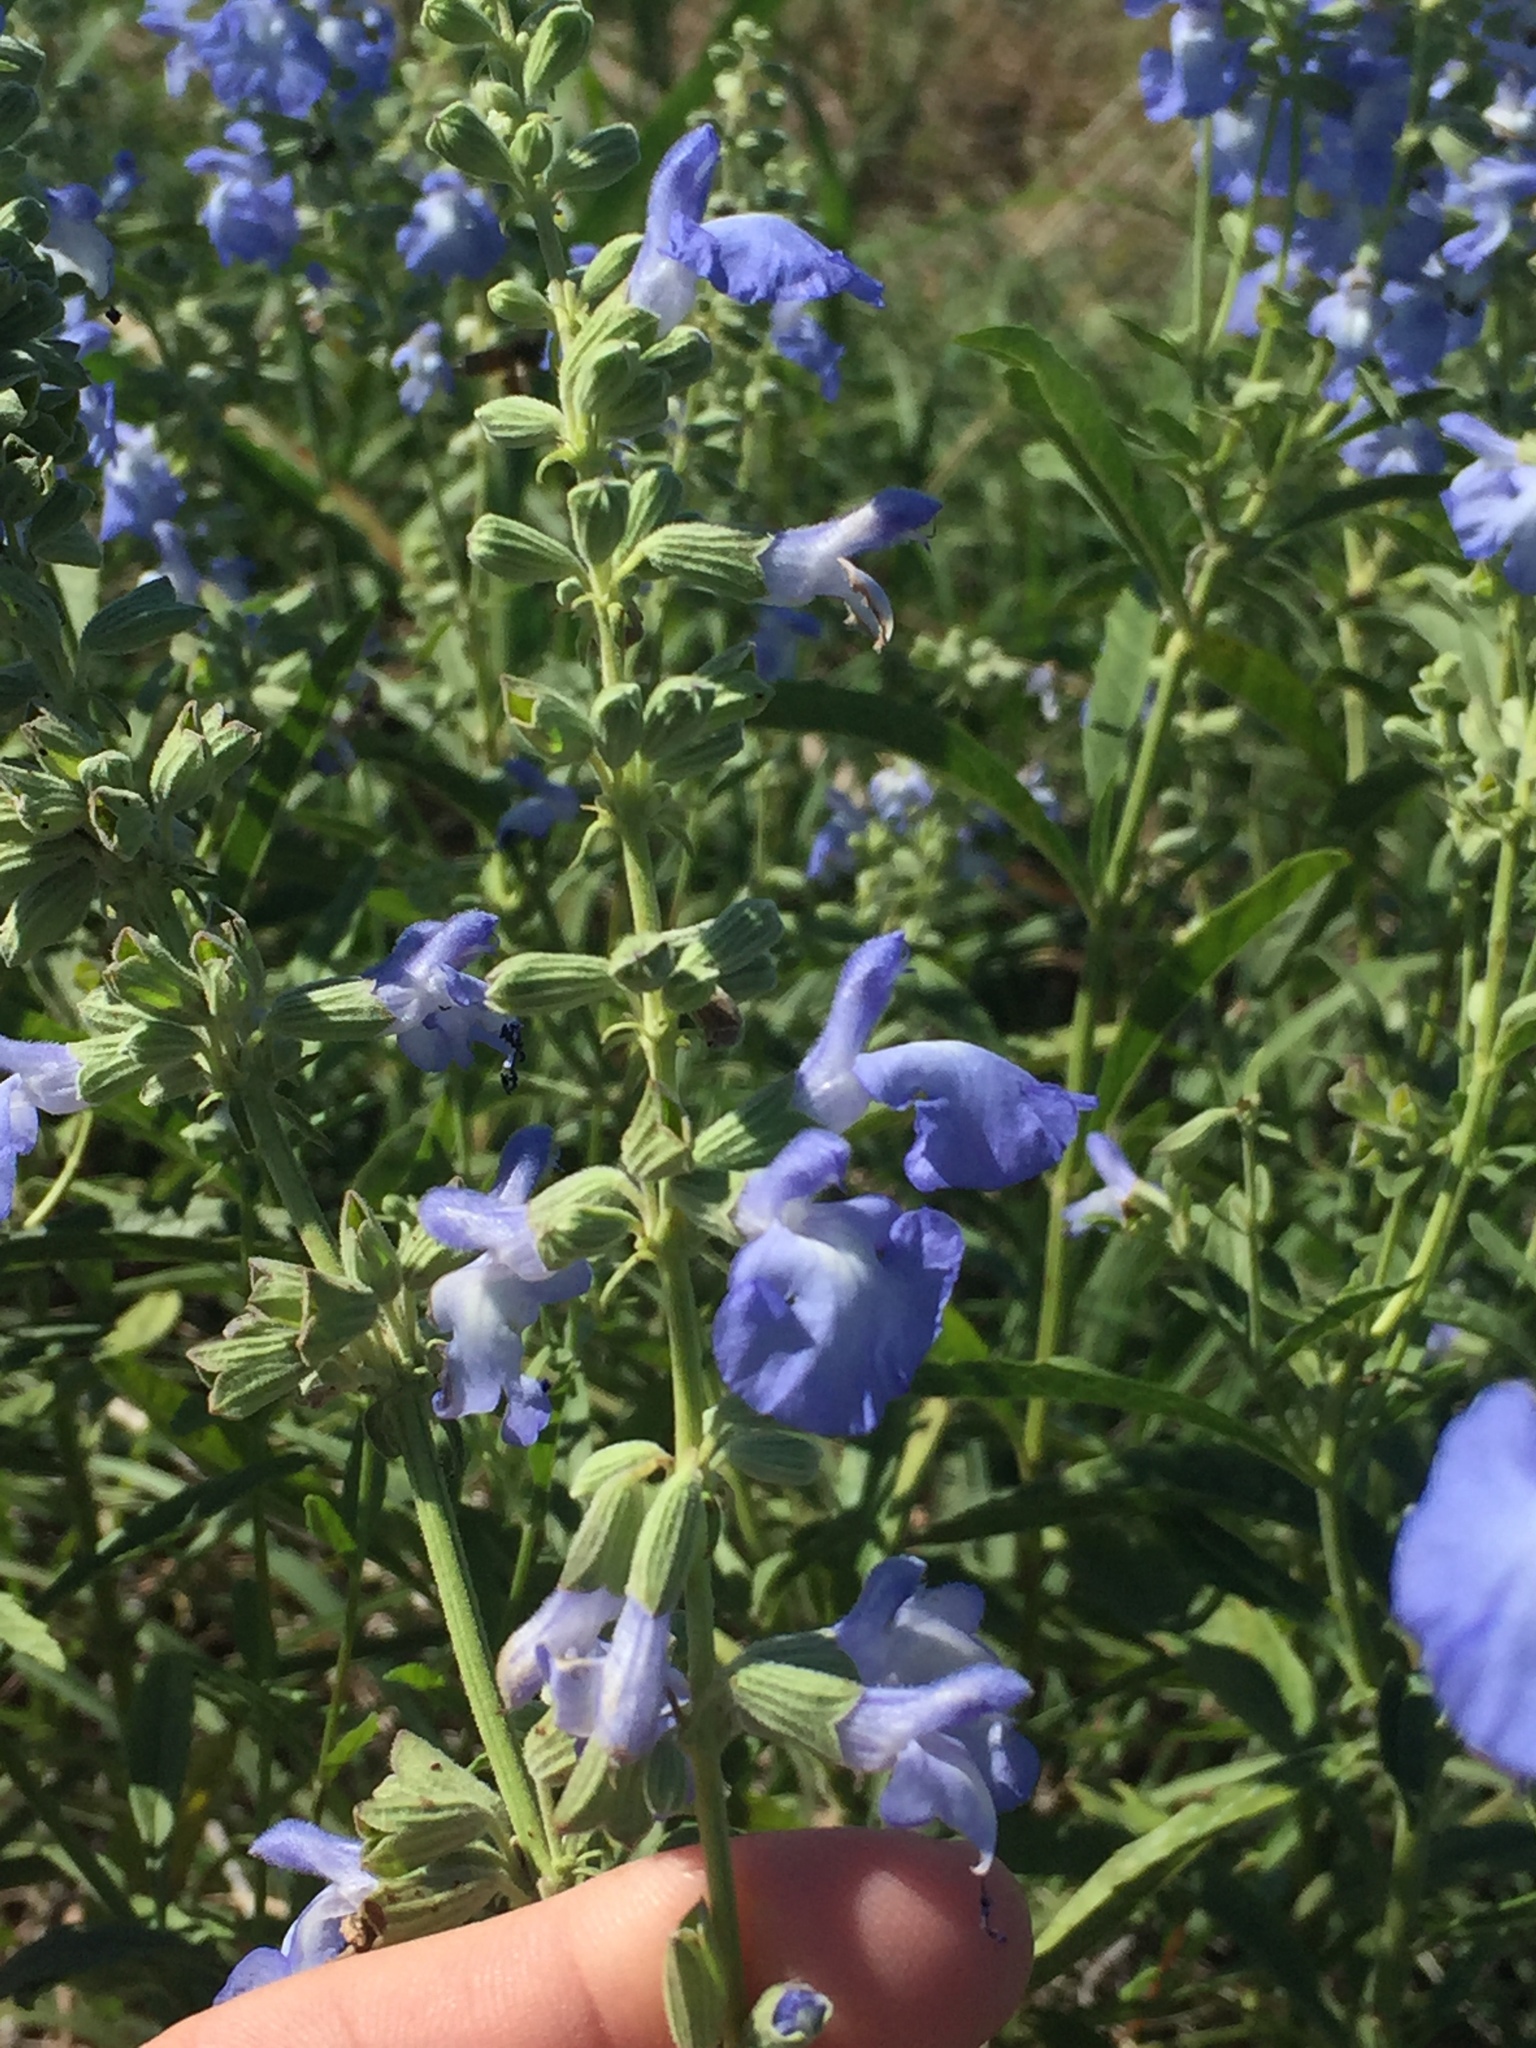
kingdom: Plantae
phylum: Tracheophyta
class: Magnoliopsida
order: Lamiales
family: Lamiaceae
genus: Salvia
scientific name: Salvia azurea
